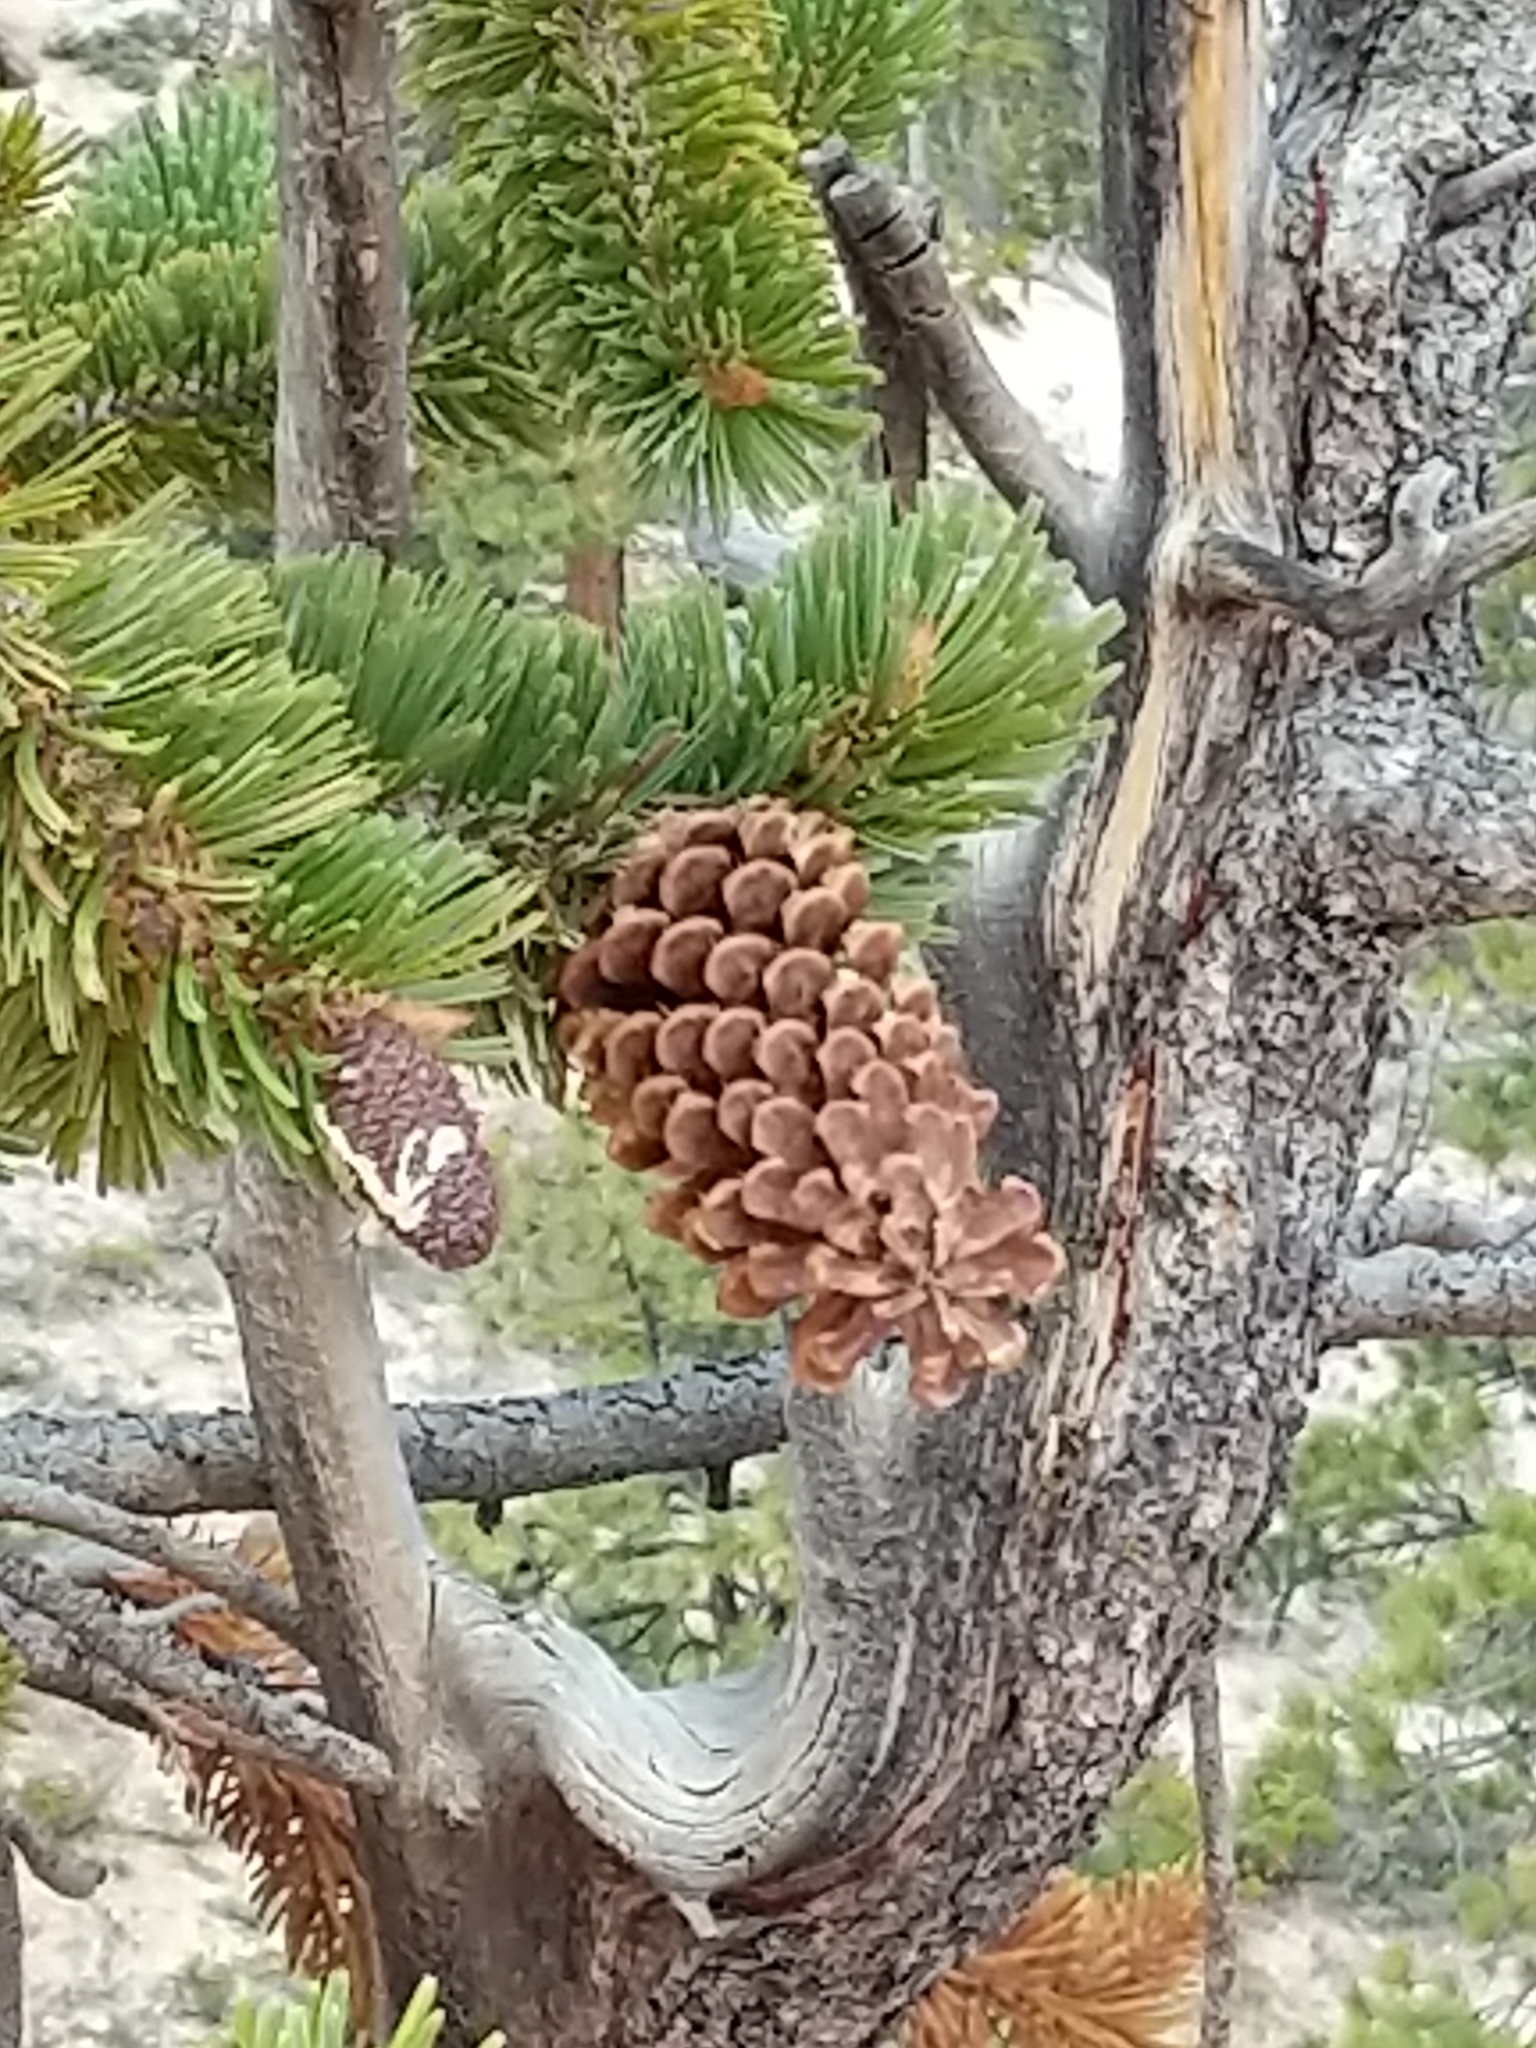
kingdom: Plantae
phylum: Tracheophyta
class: Pinopsida
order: Pinales
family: Pinaceae
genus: Pinus
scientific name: Pinus longaeva
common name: Intermountain bristlecone pine
